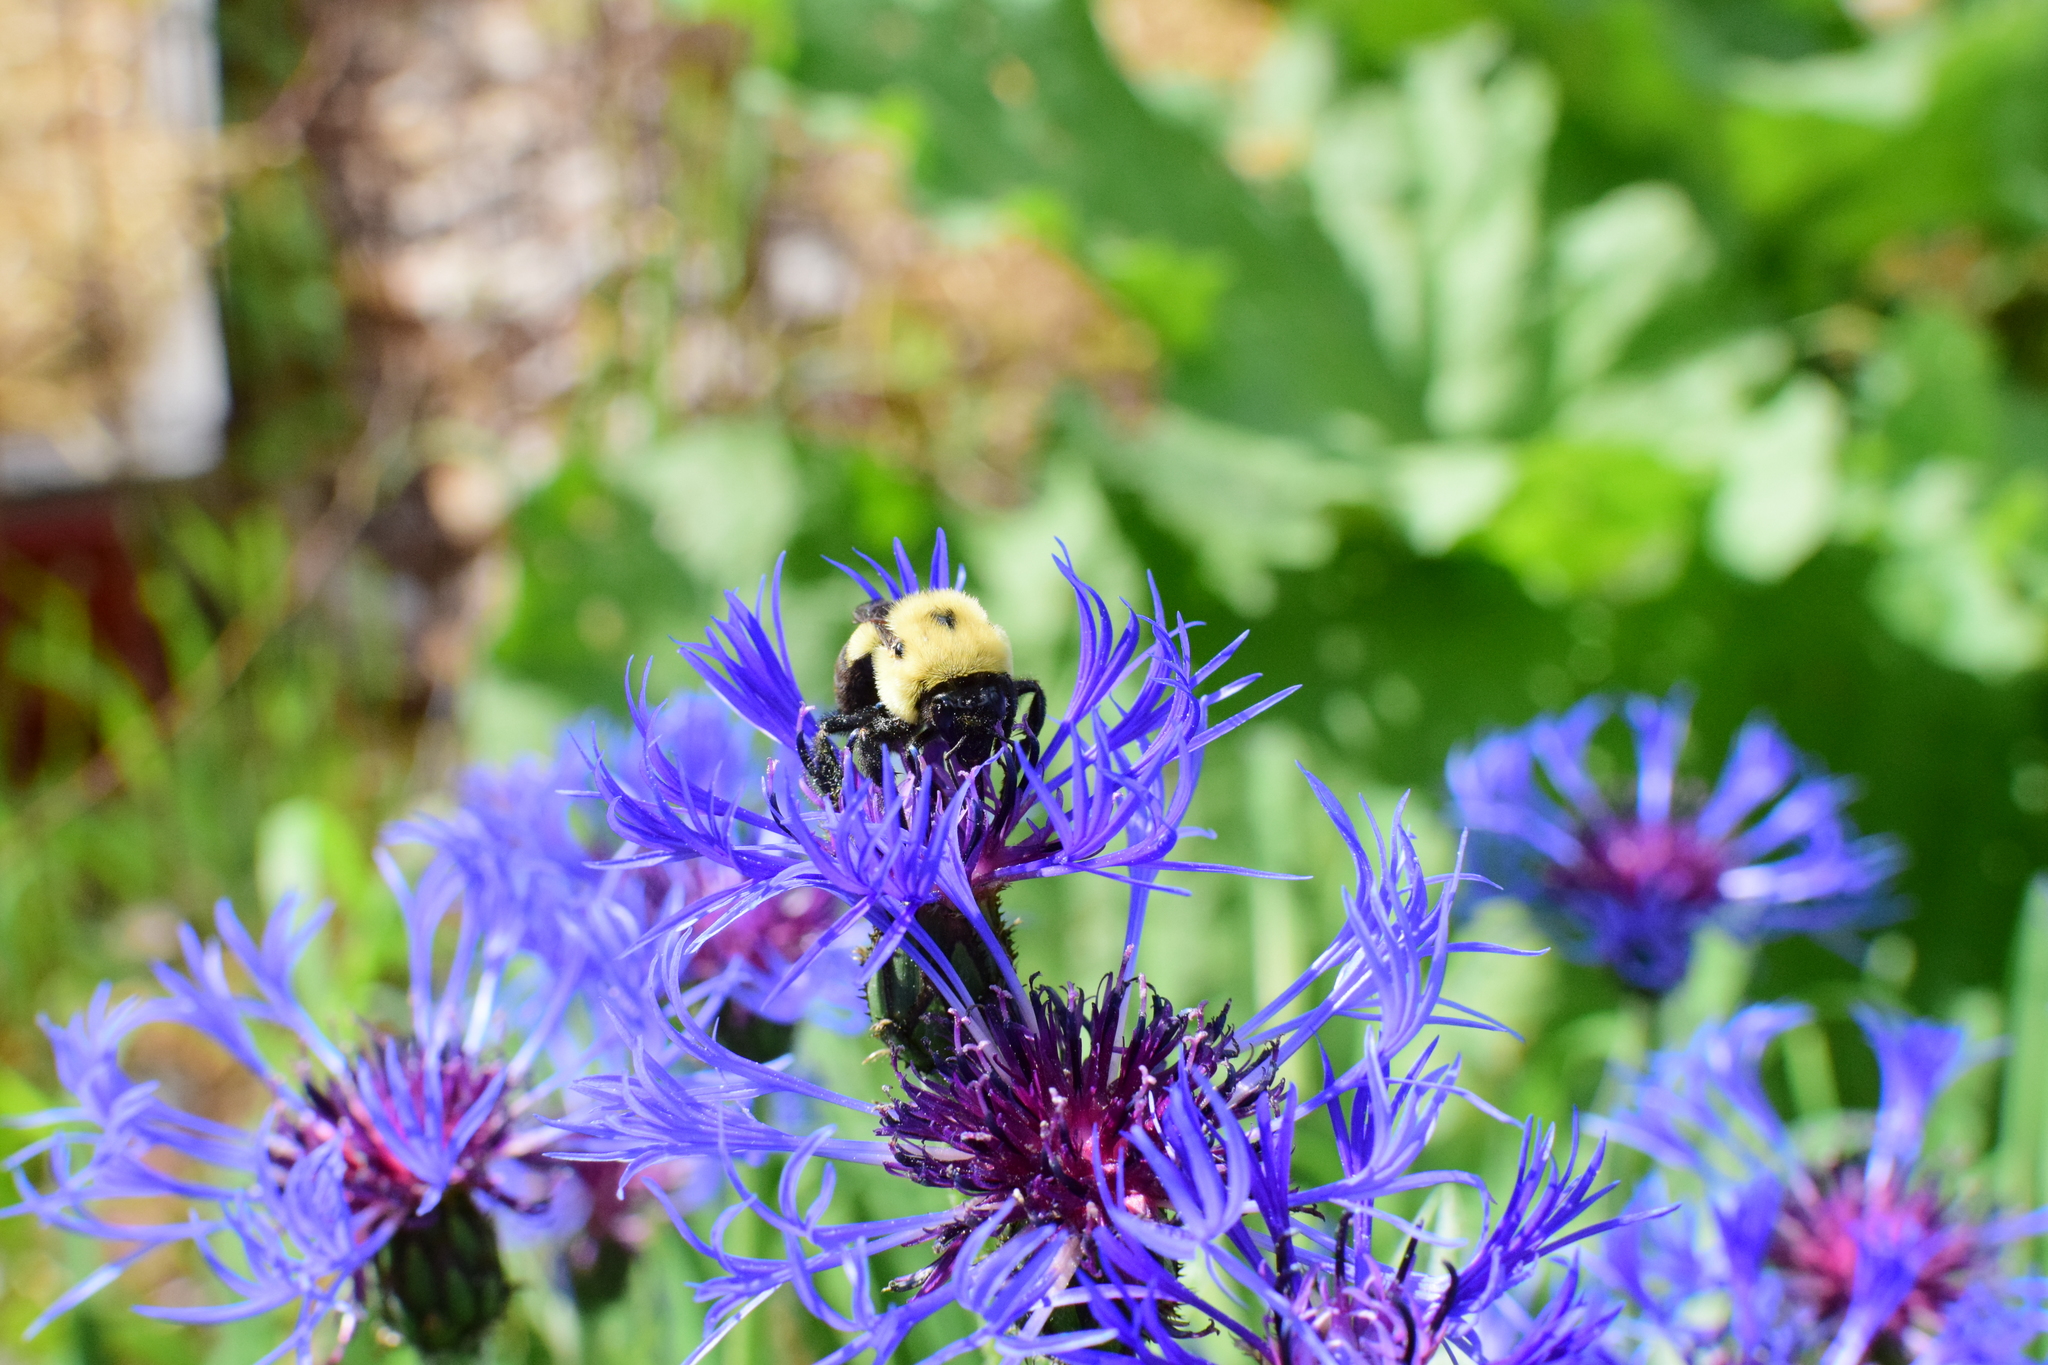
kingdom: Animalia
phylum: Arthropoda
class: Insecta
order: Hymenoptera
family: Apidae
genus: Bombus
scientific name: Bombus griseocollis
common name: Brown-belted bumble bee
